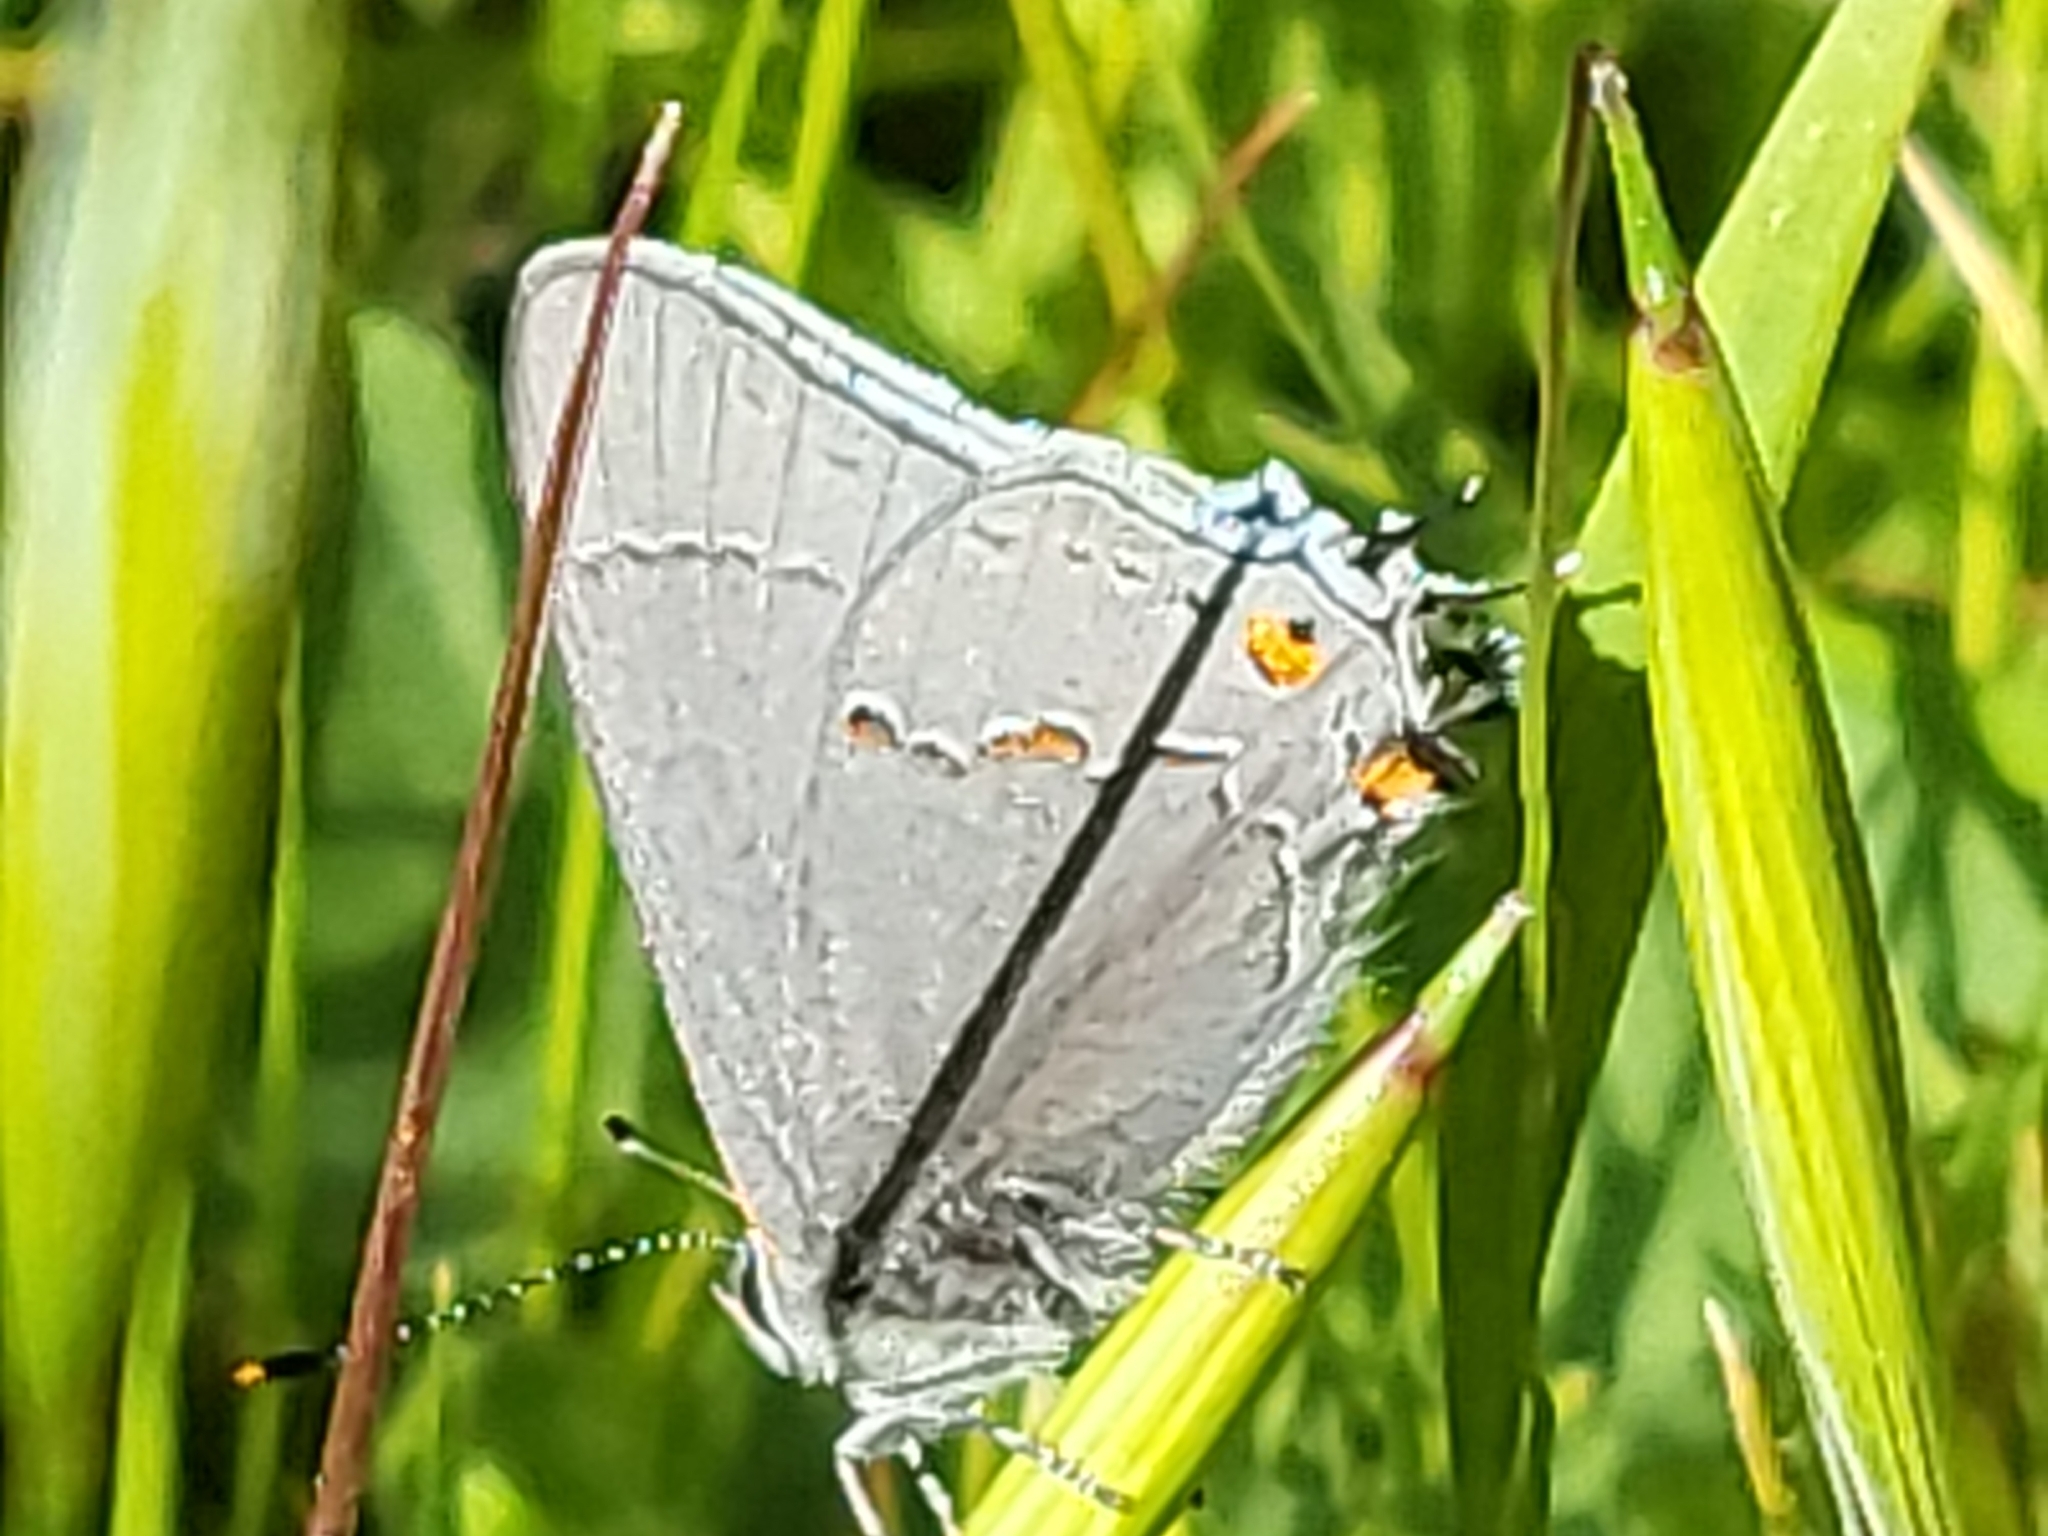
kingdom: Animalia
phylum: Arthropoda
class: Insecta
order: Lepidoptera
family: Lycaenidae
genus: Strymon
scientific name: Strymon melinus
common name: Gray hairstreak
